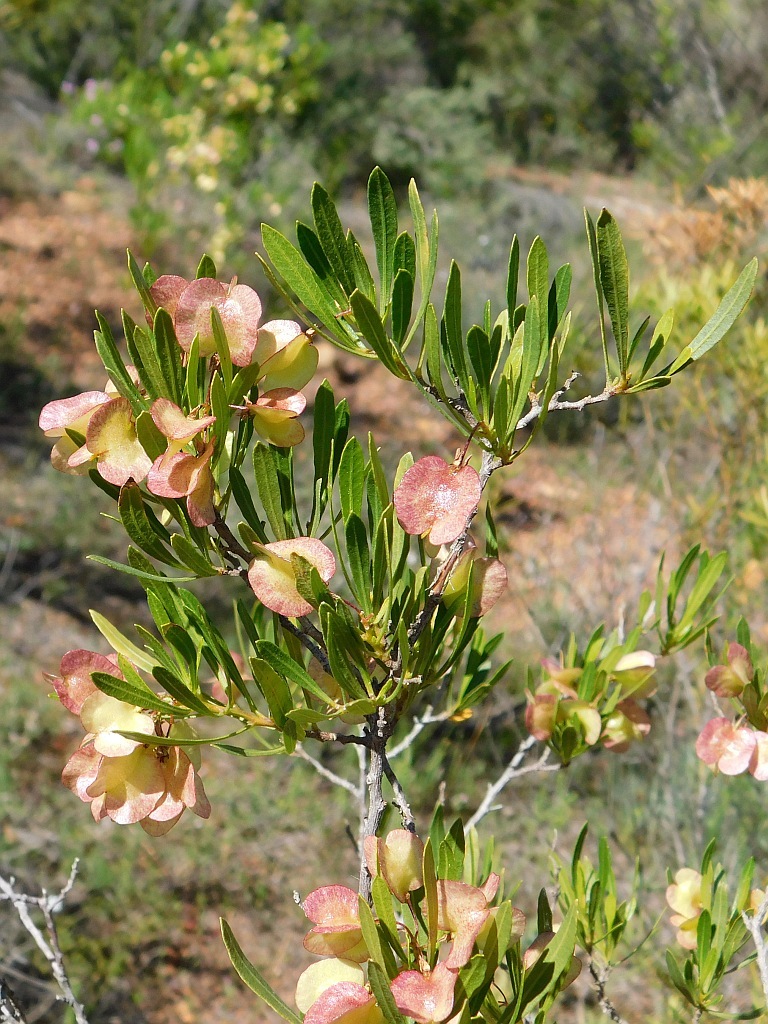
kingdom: Plantae
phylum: Tracheophyta
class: Magnoliopsida
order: Sapindales
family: Sapindaceae
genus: Dodonaea
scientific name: Dodonaea viscosa
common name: Hopbush
